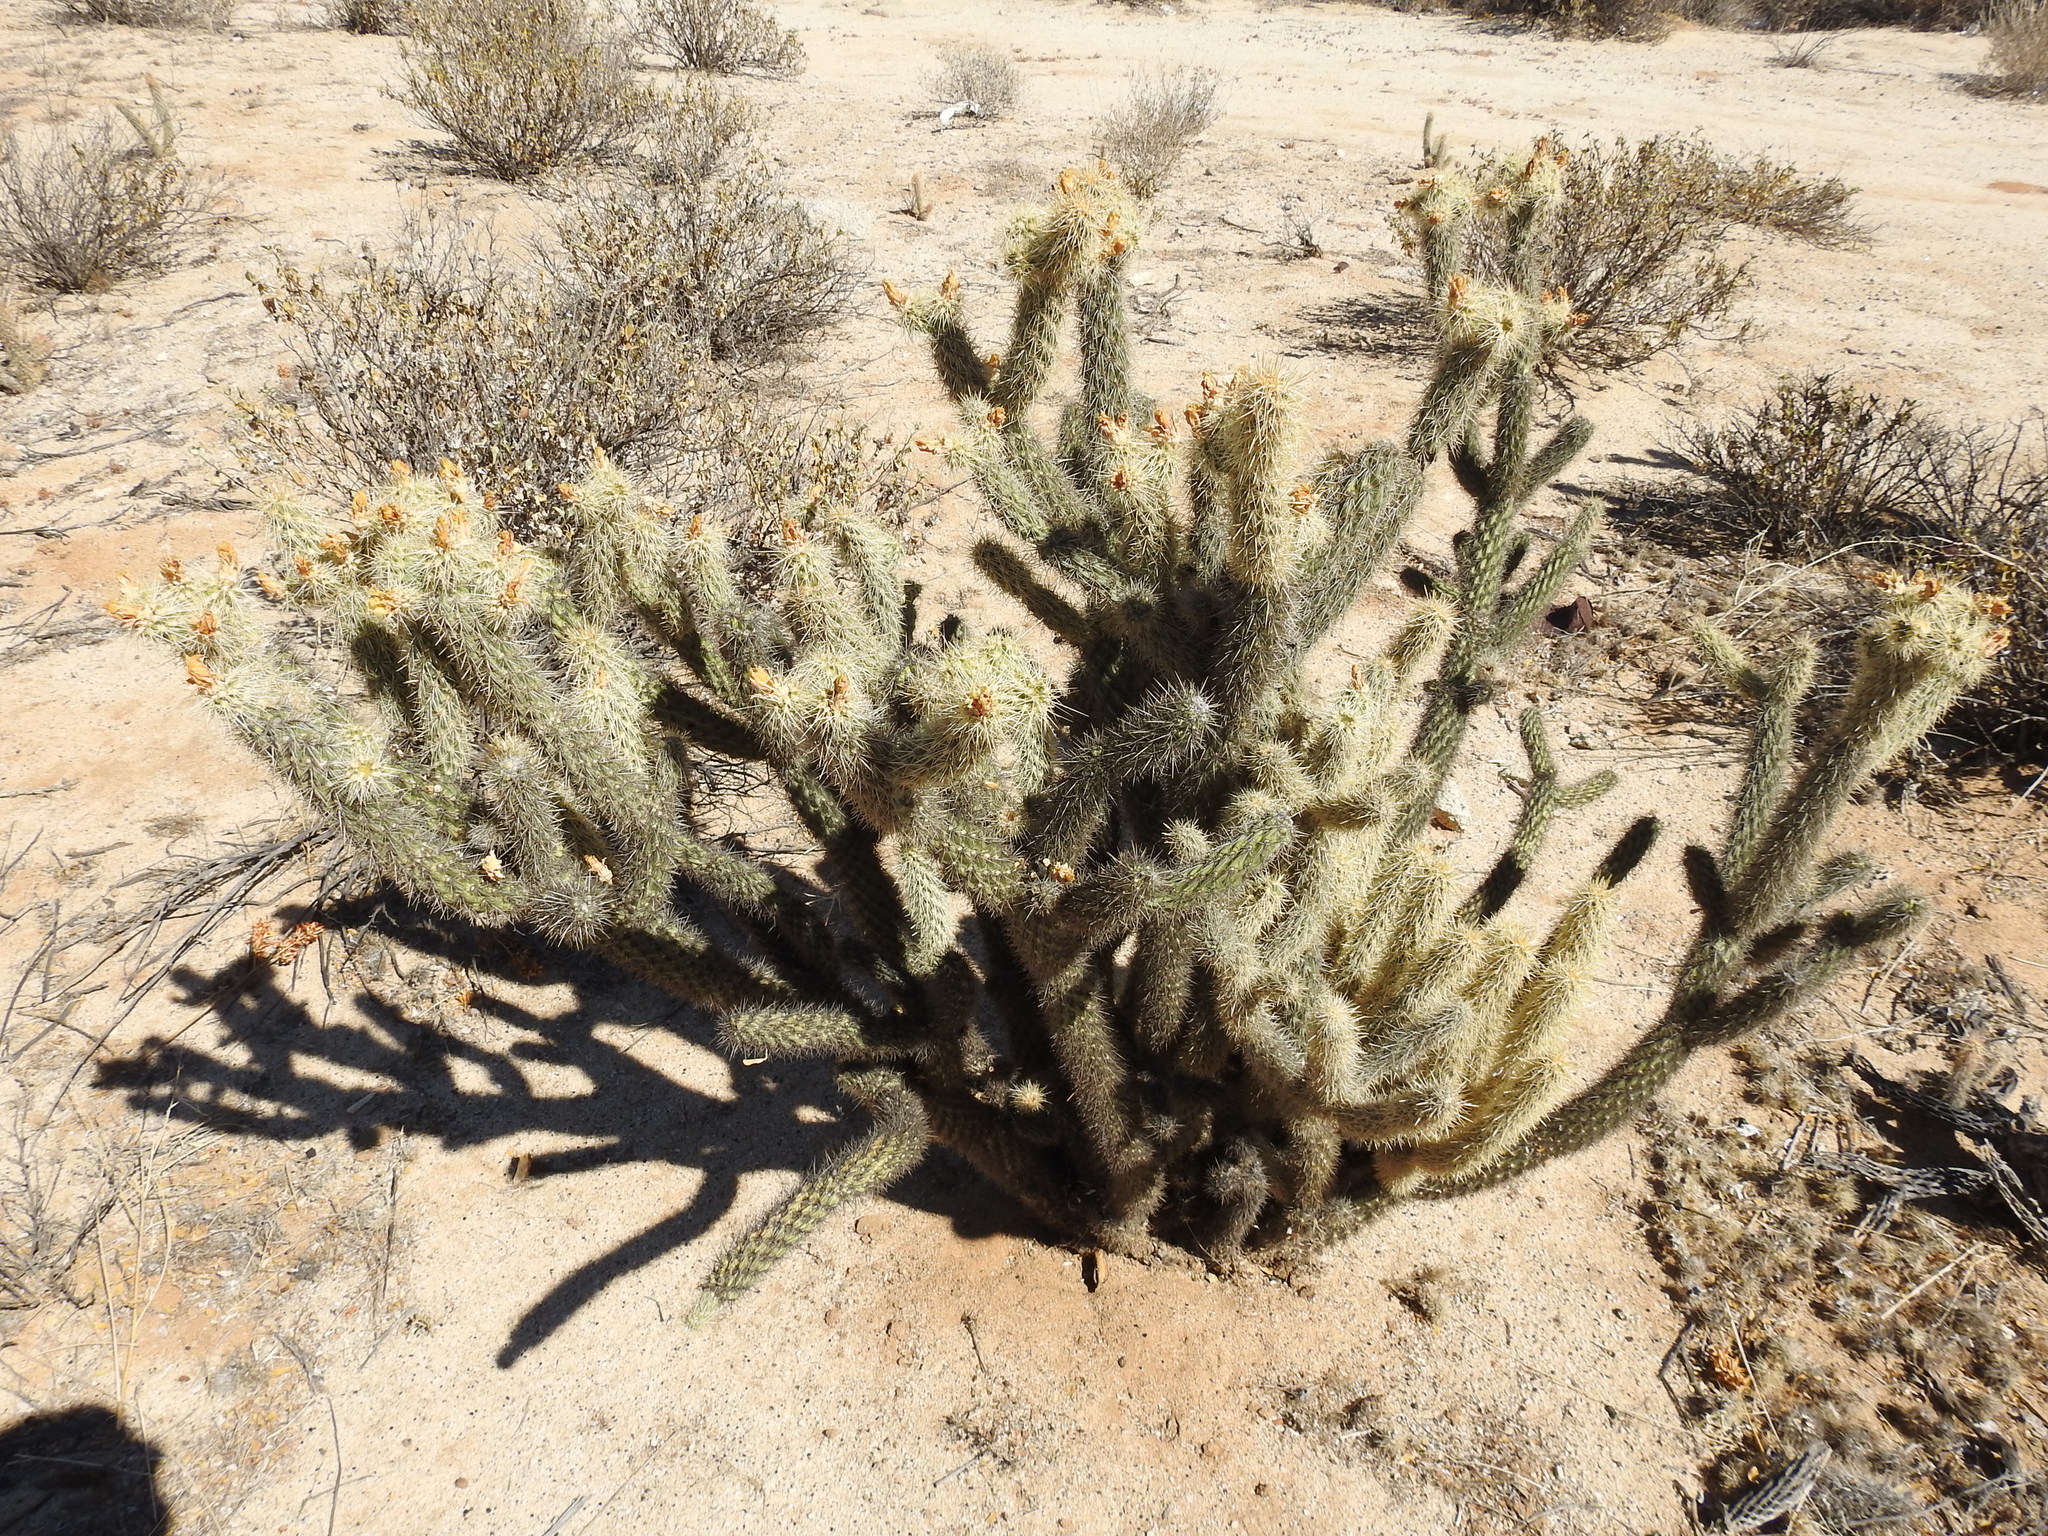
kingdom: Plantae
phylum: Tracheophyta
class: Magnoliopsida
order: Caryophyllales
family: Cactaceae
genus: Cylindropuntia
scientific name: Cylindropuntia ganderi
